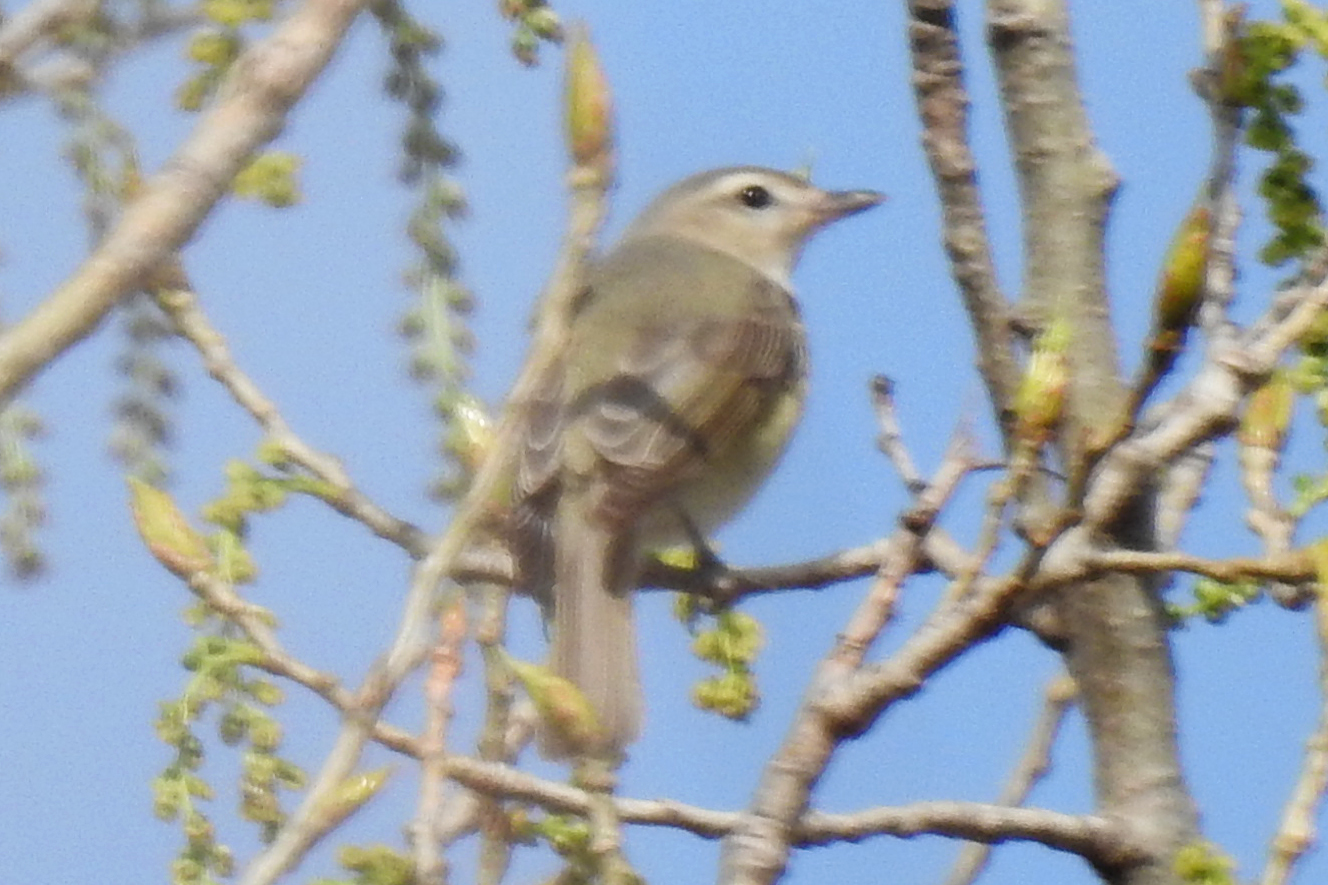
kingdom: Animalia
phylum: Chordata
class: Aves
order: Passeriformes
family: Vireonidae
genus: Vireo
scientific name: Vireo gilvus
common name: Warbling vireo
